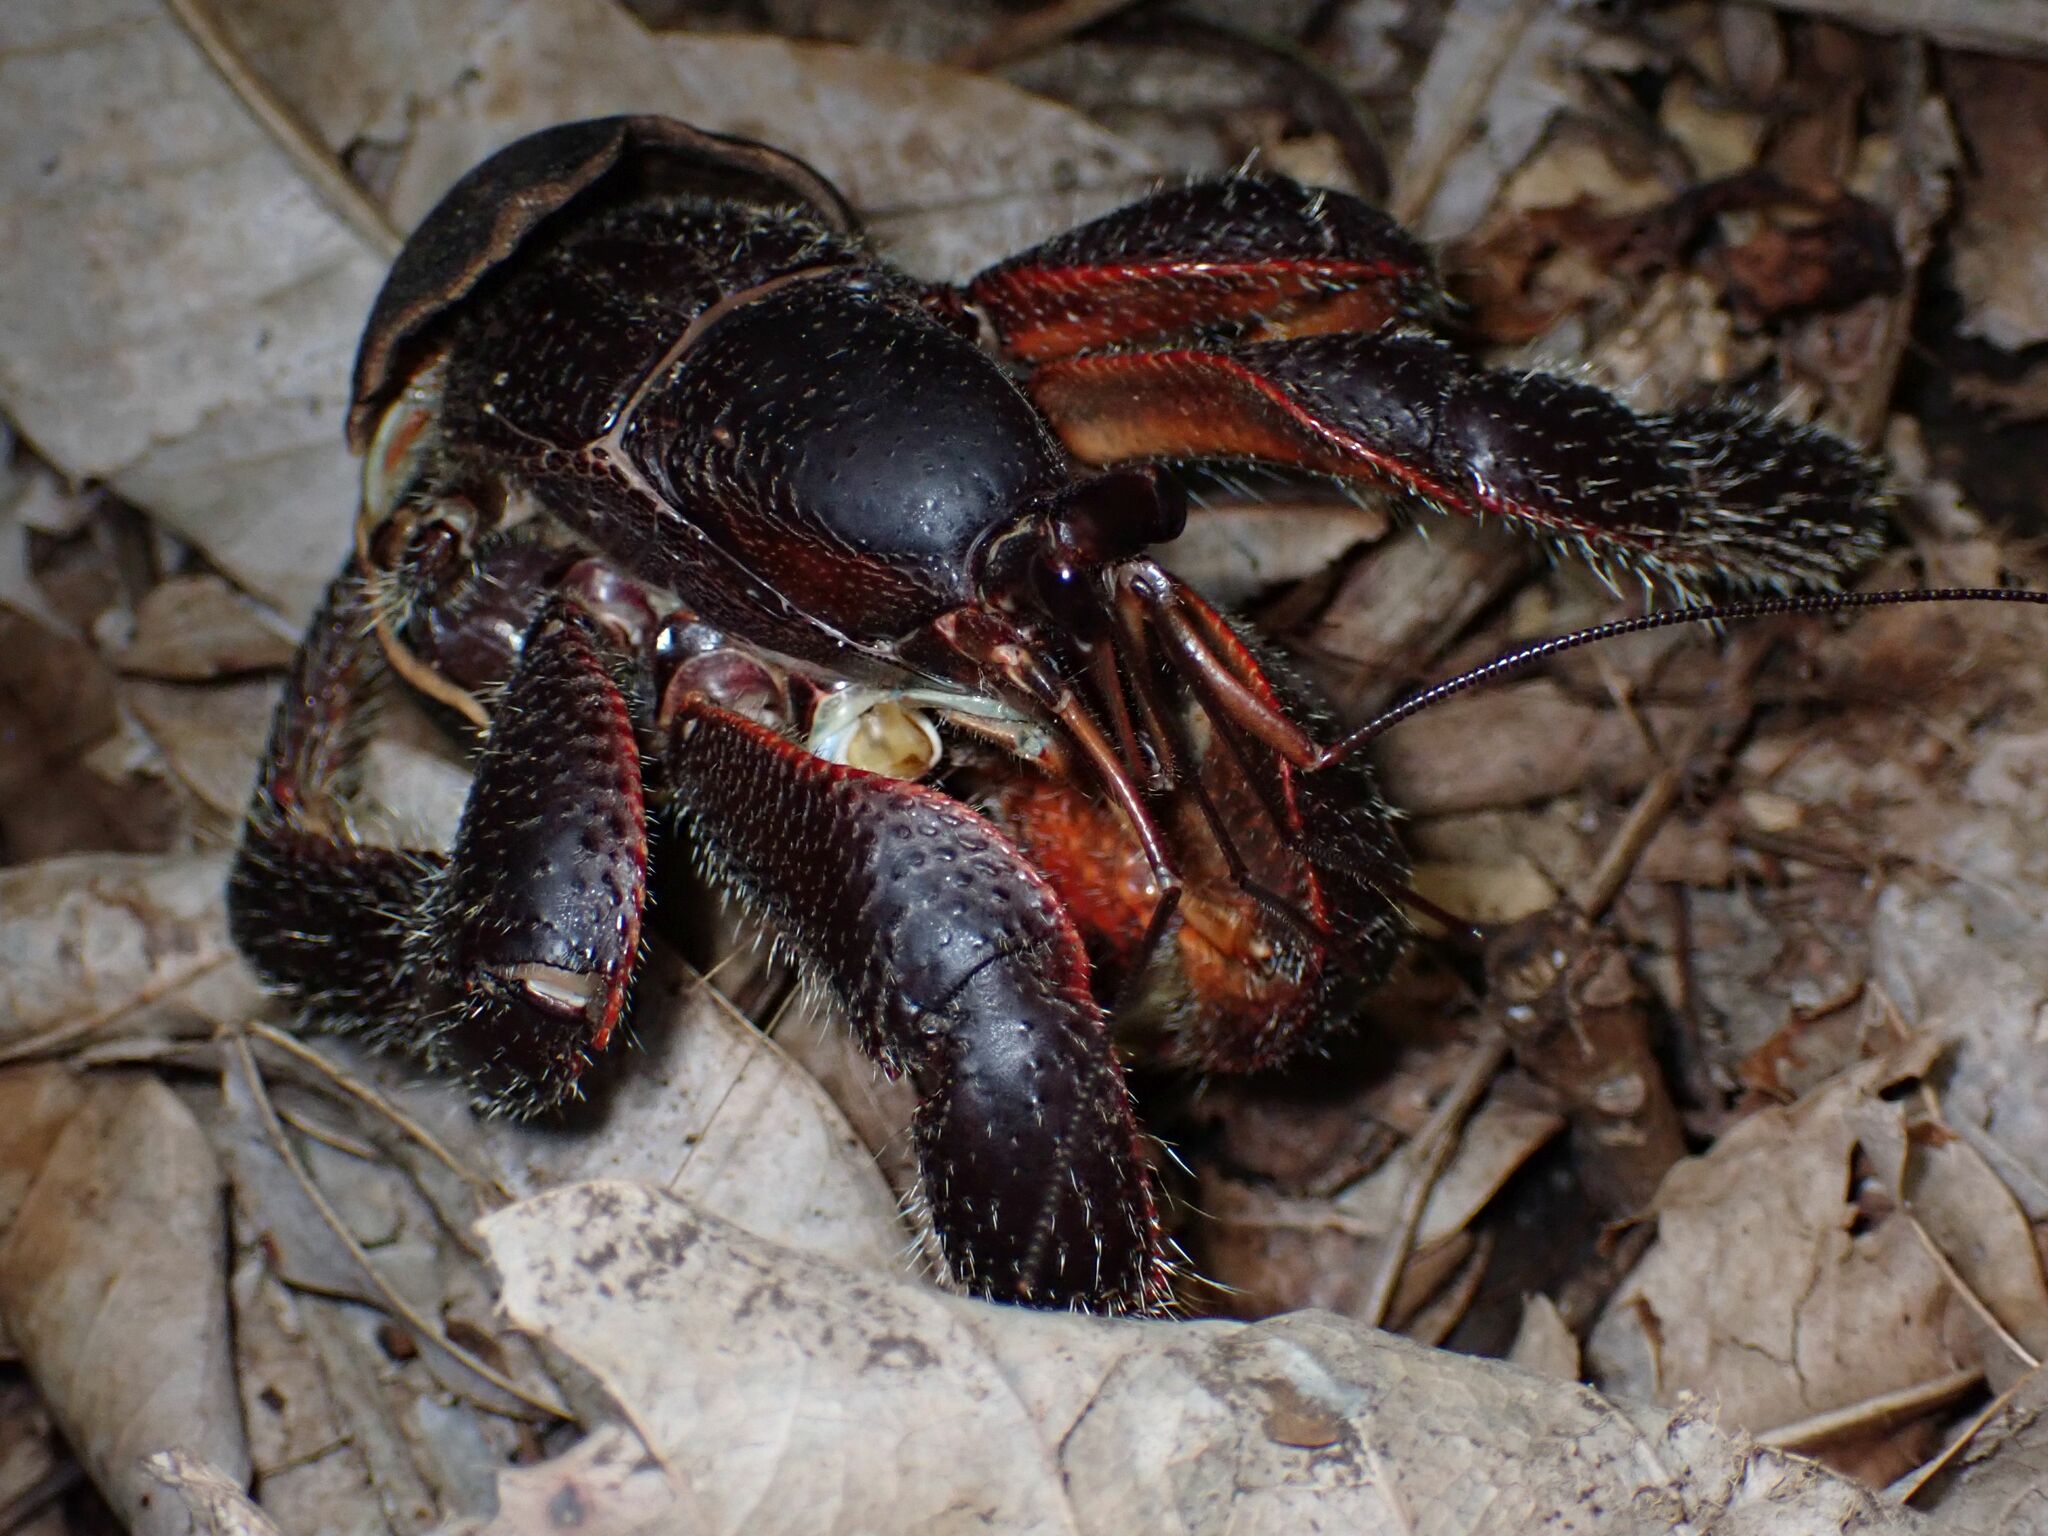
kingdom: Animalia
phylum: Arthropoda
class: Malacostraca
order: Decapoda
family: Coenobitidae
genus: Coenobita
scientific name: Coenobita spinosus
